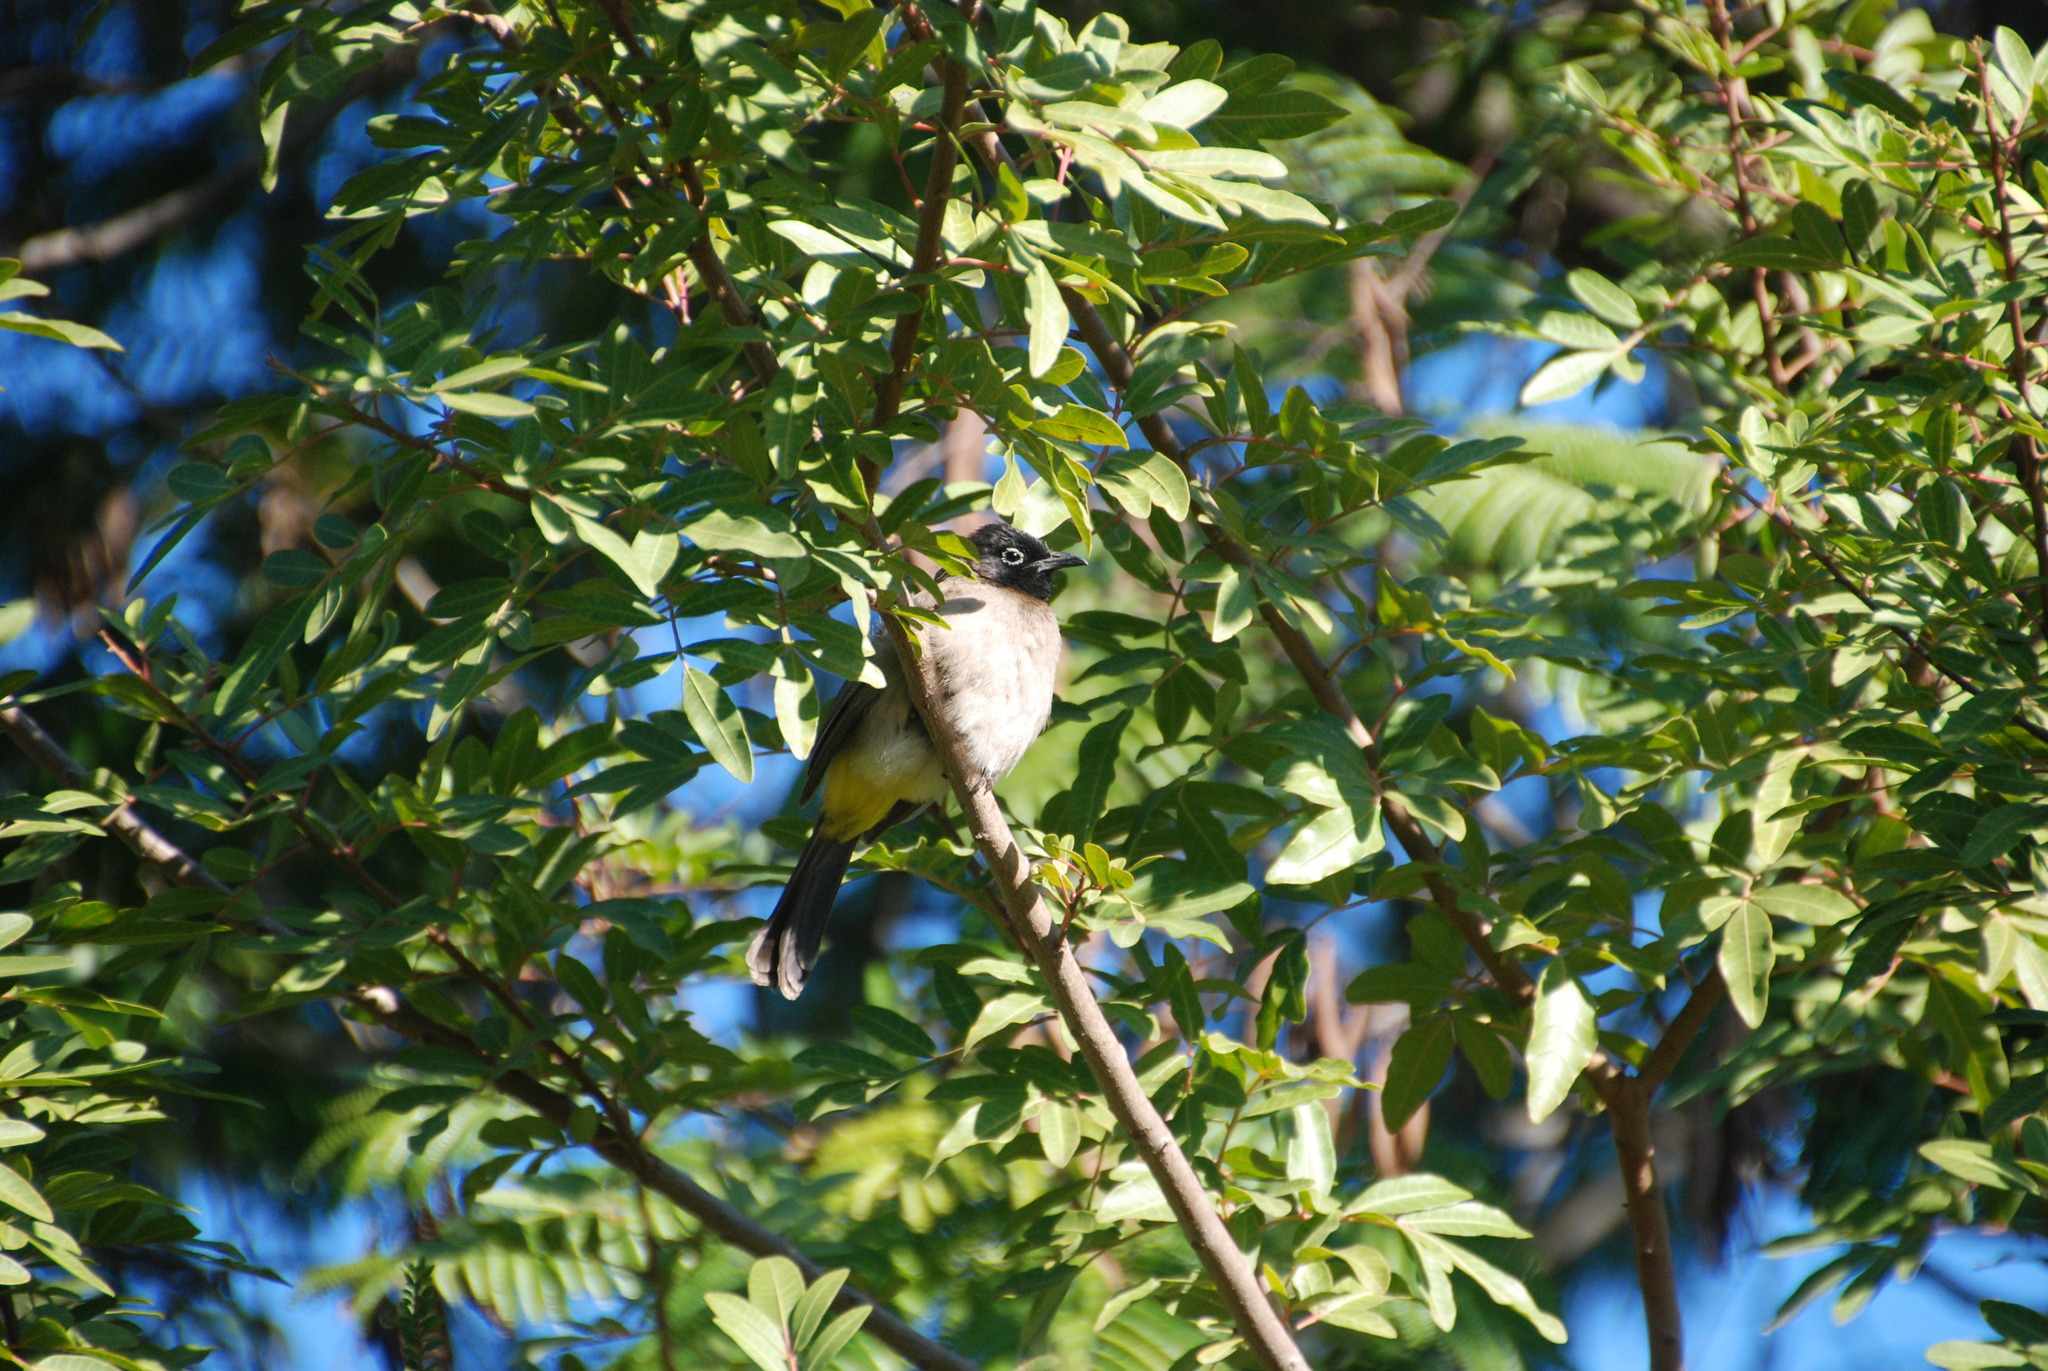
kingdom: Animalia
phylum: Chordata
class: Aves
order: Passeriformes
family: Pycnonotidae
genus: Pycnonotus
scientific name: Pycnonotus xanthopygos
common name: White-spectacled bulbul
